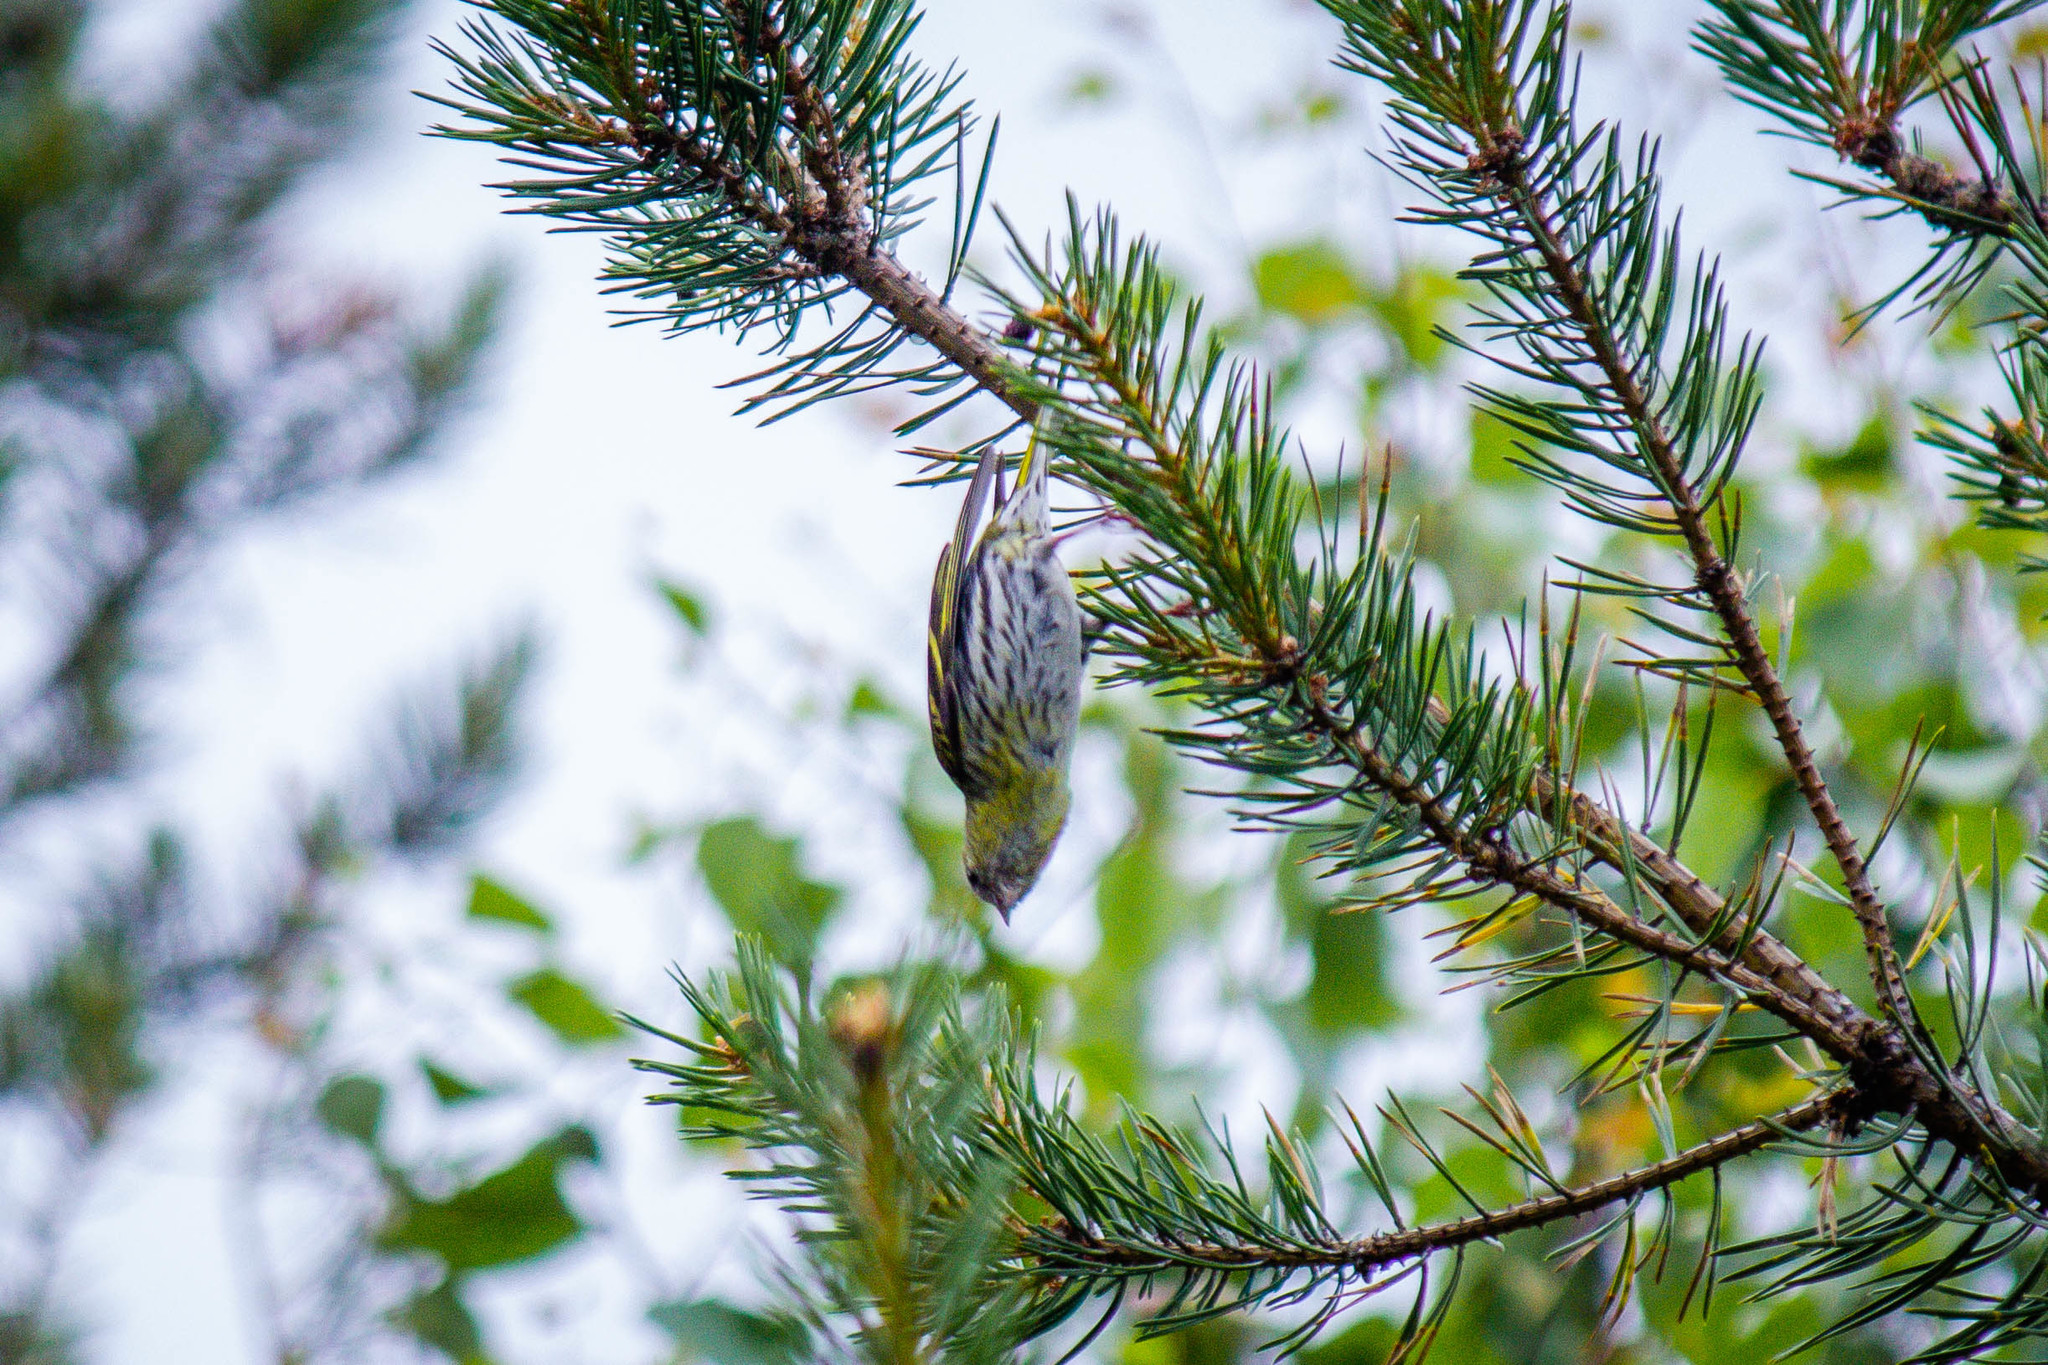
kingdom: Animalia
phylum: Chordata
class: Aves
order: Passeriformes
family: Fringillidae
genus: Spinus
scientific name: Spinus spinus
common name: Eurasian siskin
